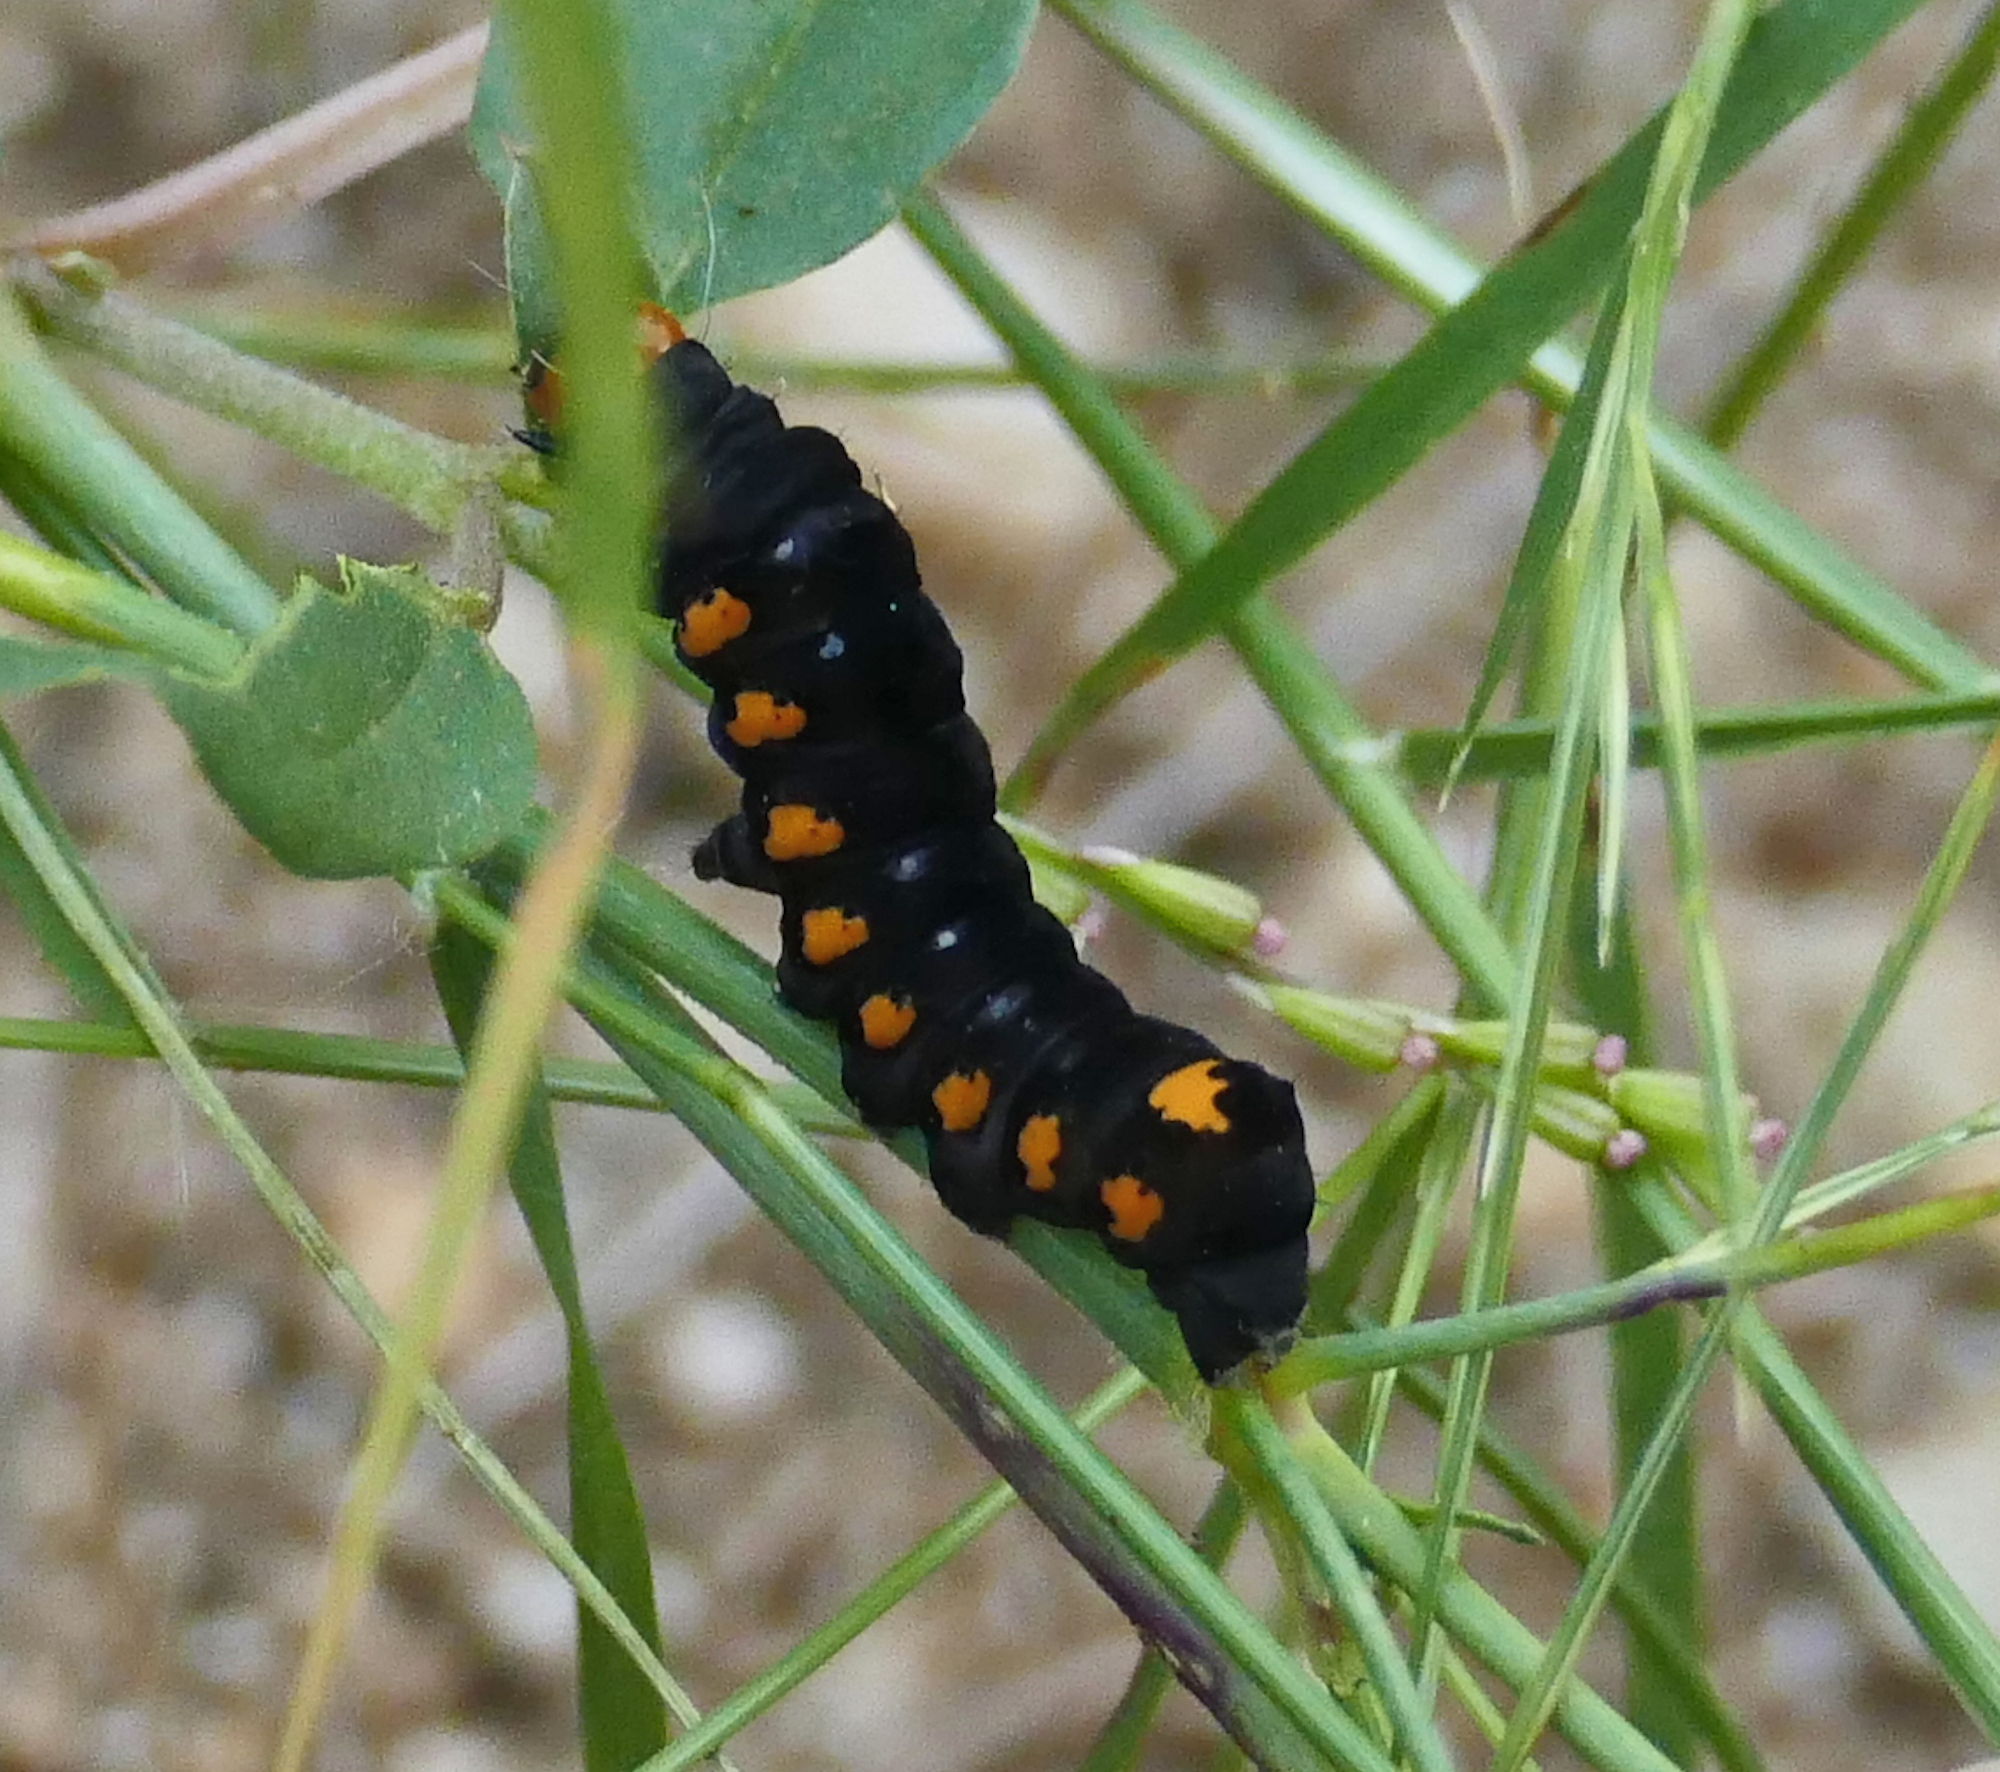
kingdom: Animalia
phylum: Arthropoda
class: Insecta
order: Lepidoptera
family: Noctuidae
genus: Alypiodes
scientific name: Alypiodes geronimo
